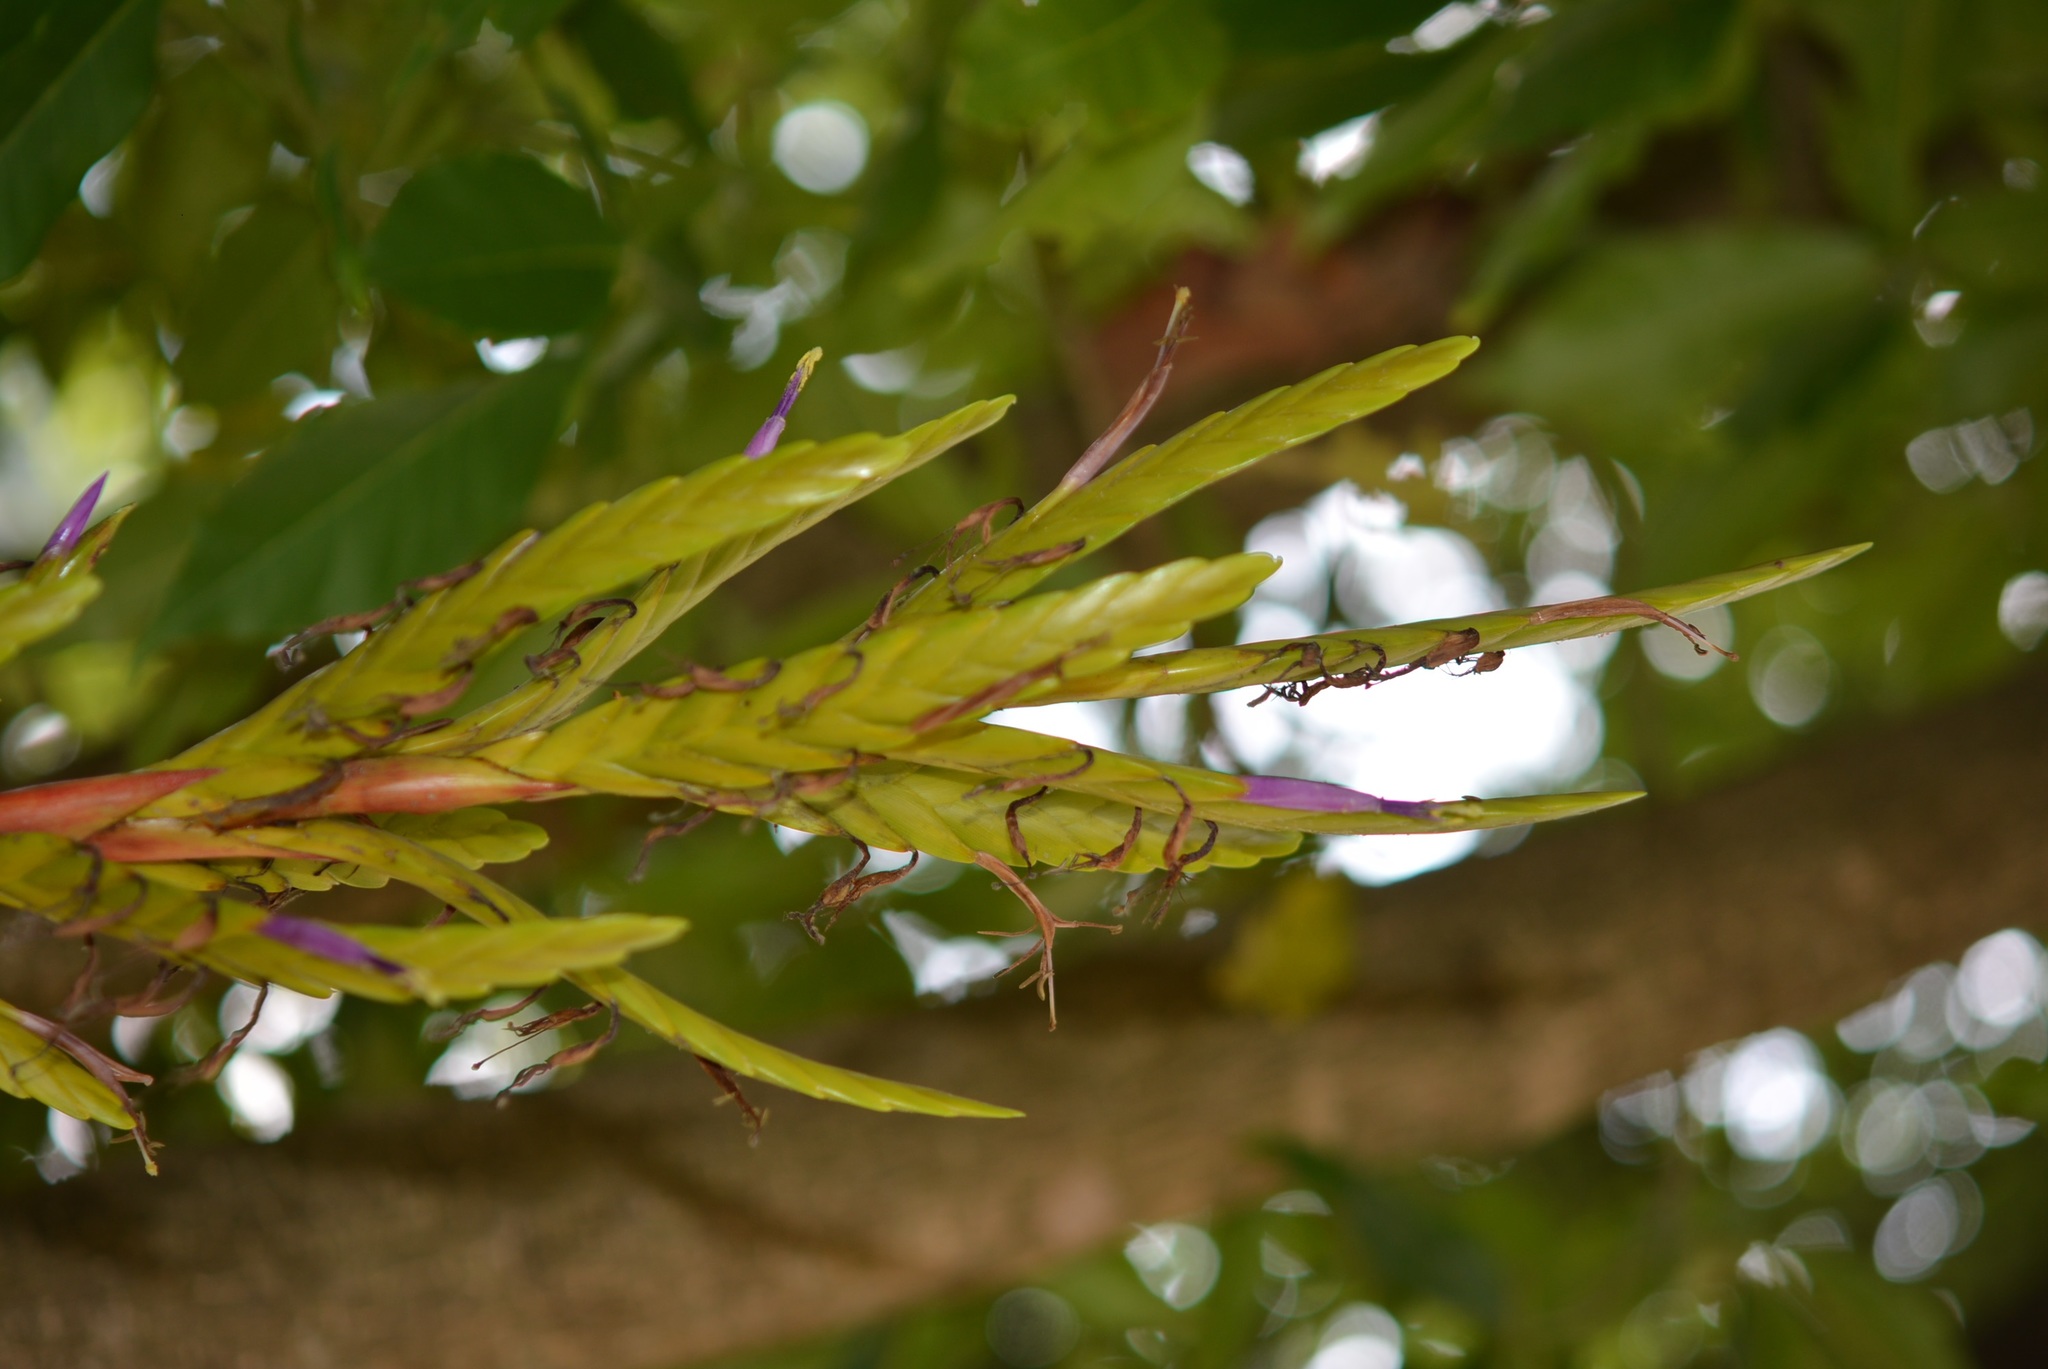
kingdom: Plantae
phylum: Tracheophyta
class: Liliopsida
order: Poales
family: Bromeliaceae
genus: Tillandsia
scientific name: Tillandsia rodrigueziana
